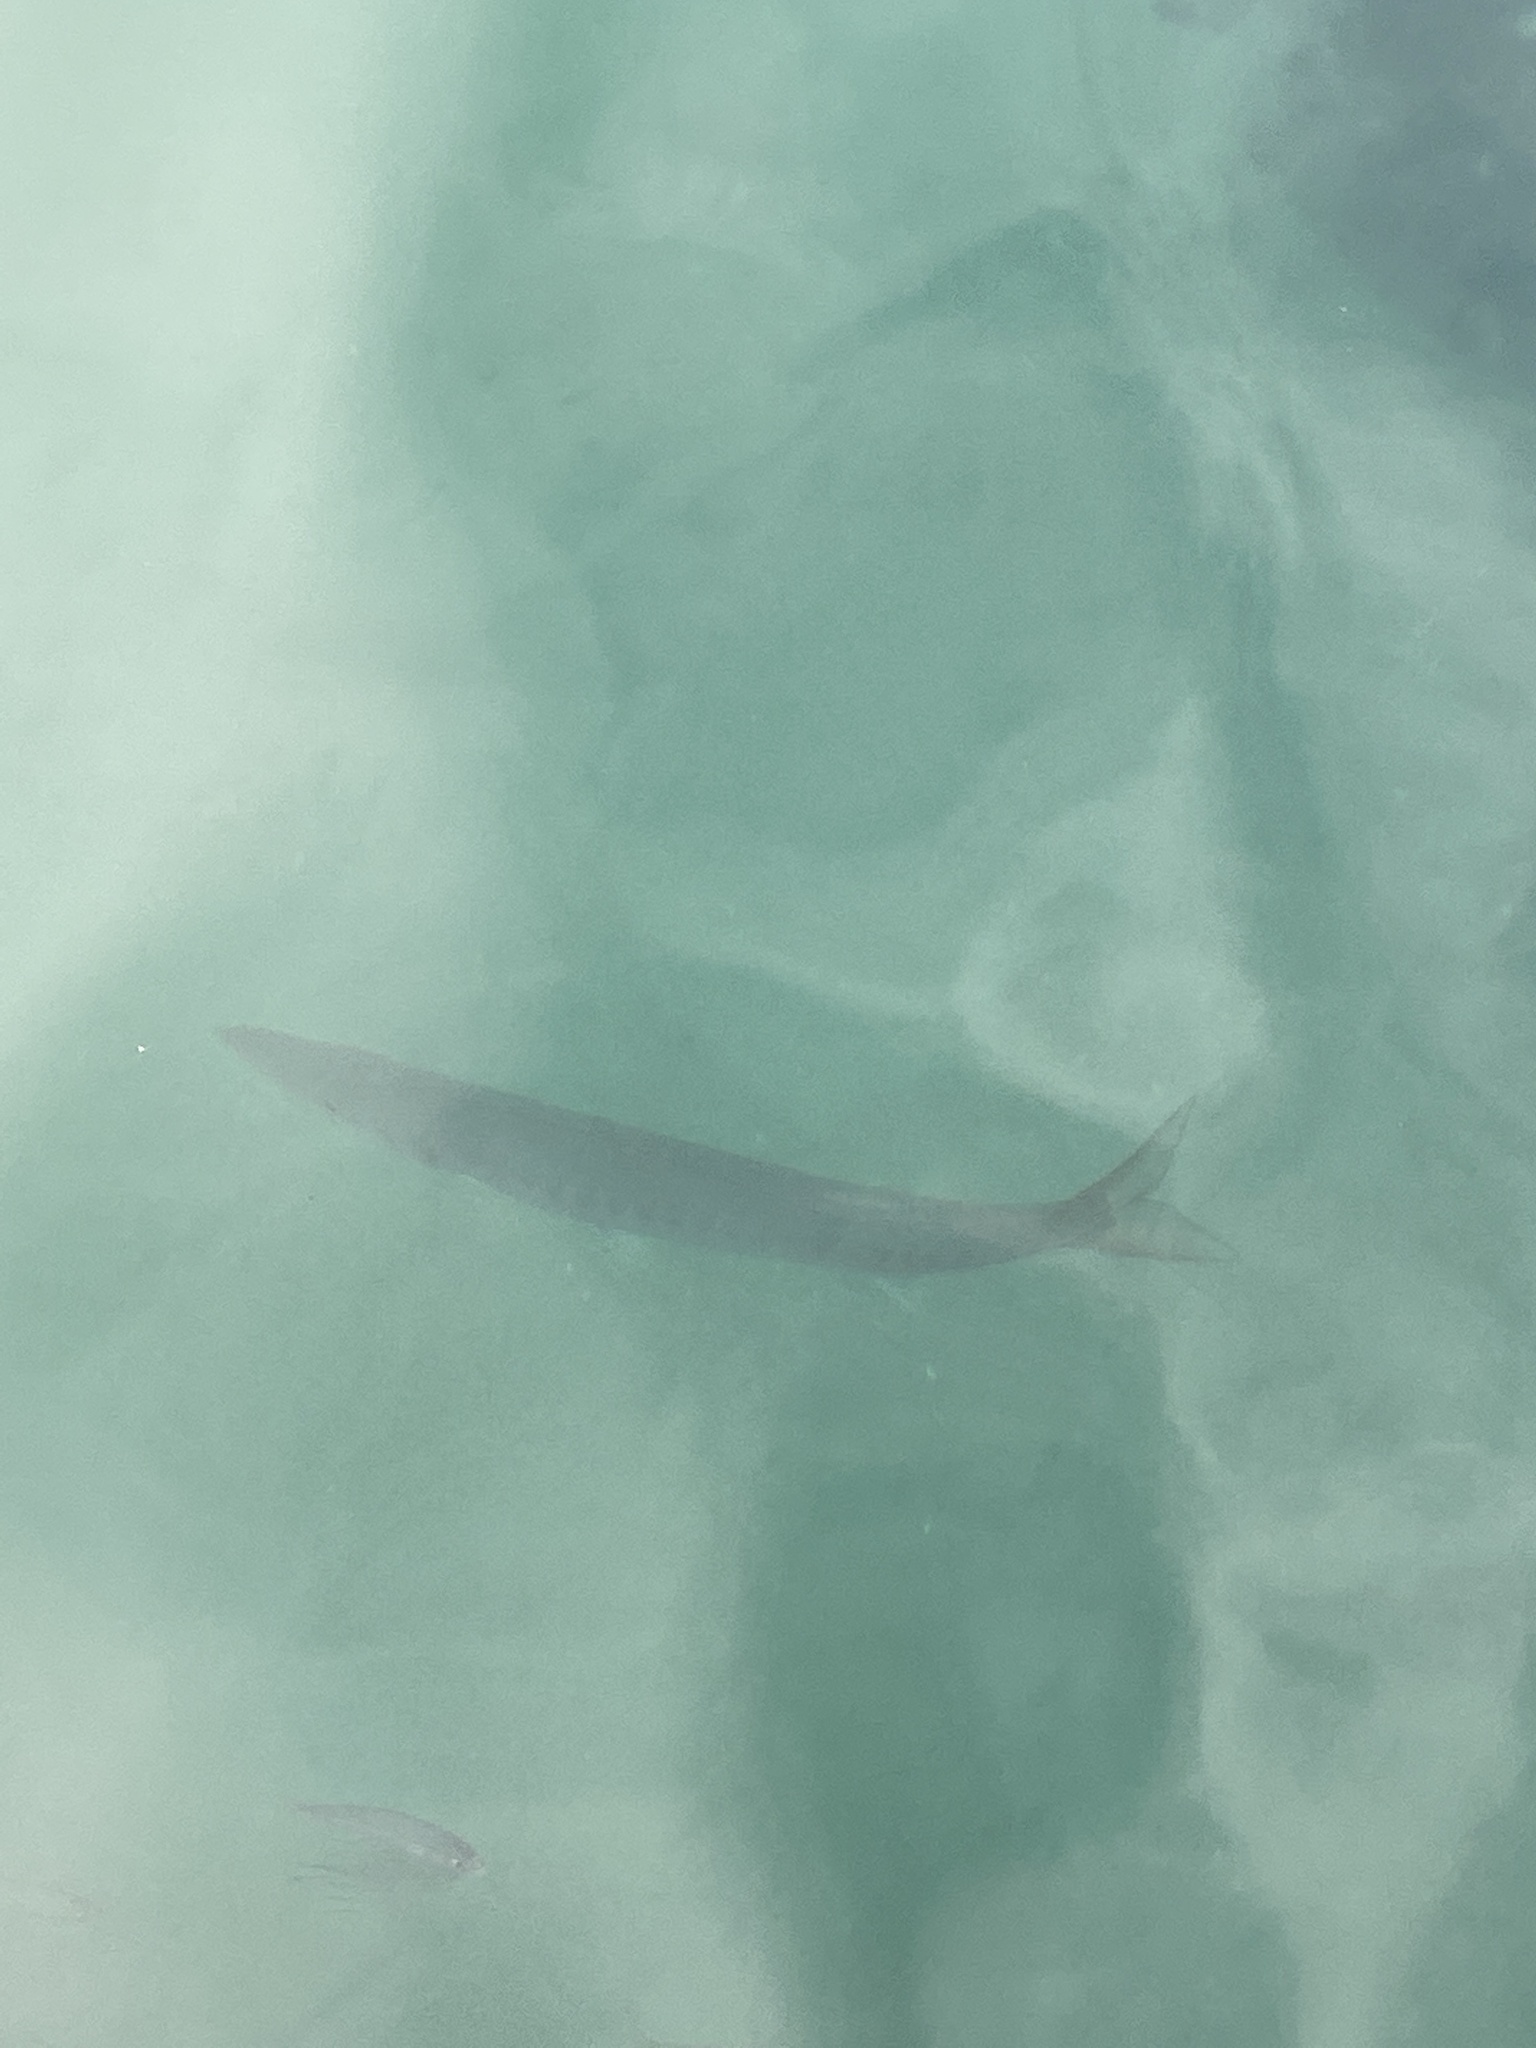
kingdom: Animalia
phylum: Chordata
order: Perciformes
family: Sphyraenidae
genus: Sphyraena
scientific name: Sphyraena viridensis
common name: Yellowmouth barracuda
